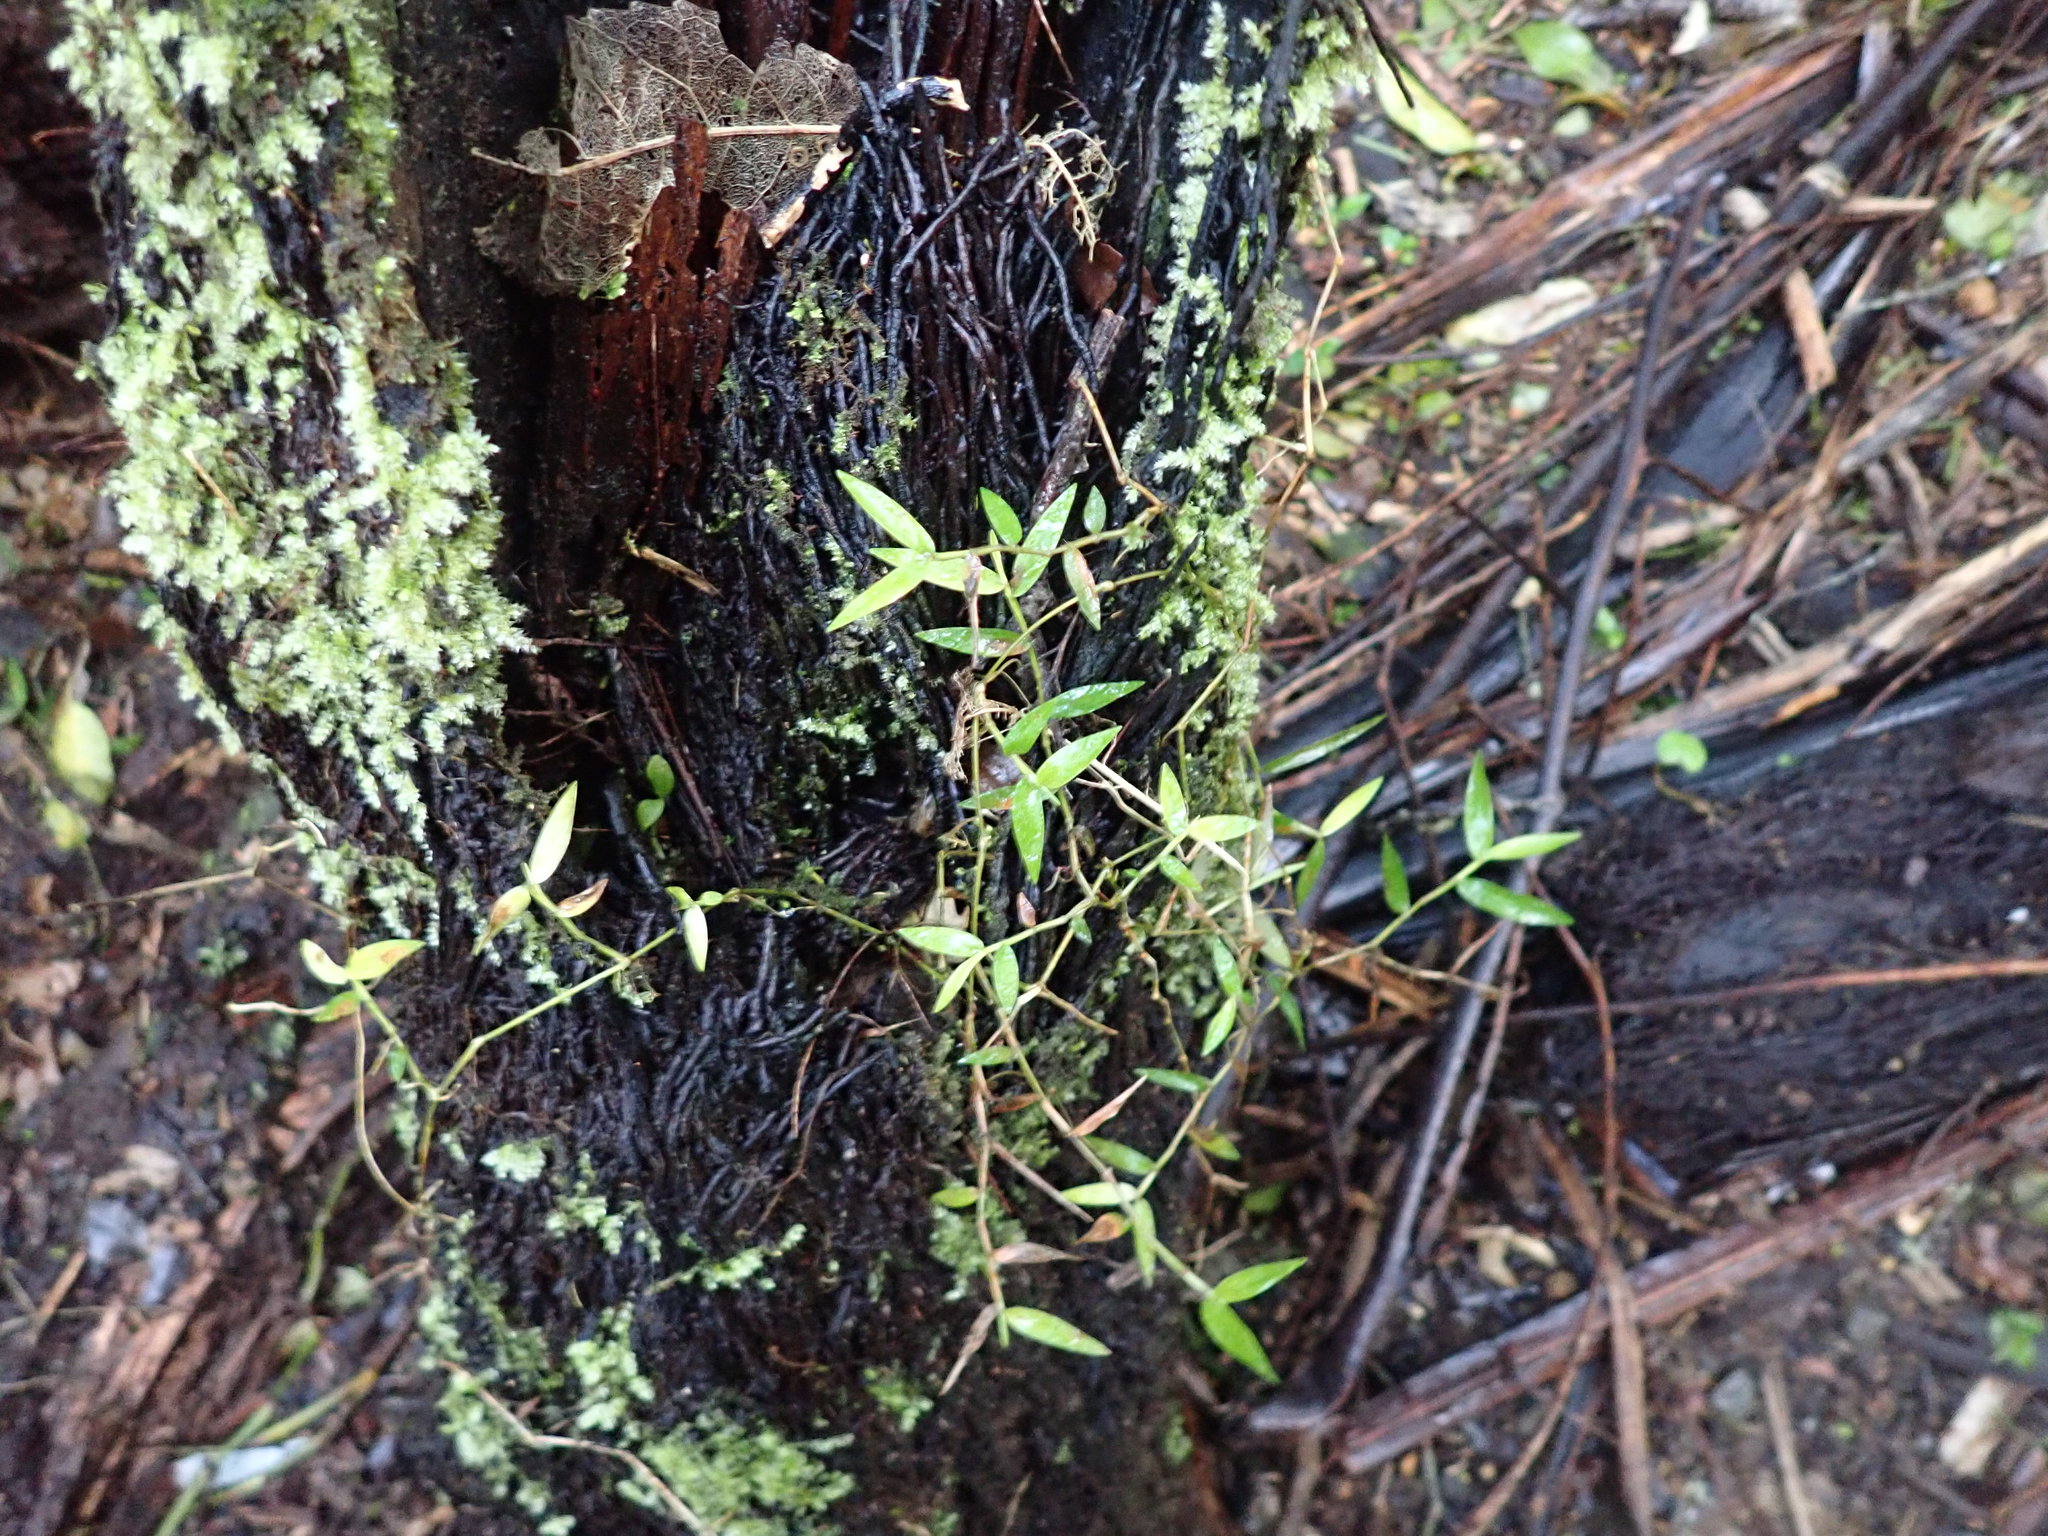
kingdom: Plantae
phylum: Tracheophyta
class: Liliopsida
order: Poales
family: Poaceae
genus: Oplismenus
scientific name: Oplismenus hirtellus
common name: Basketgrass
